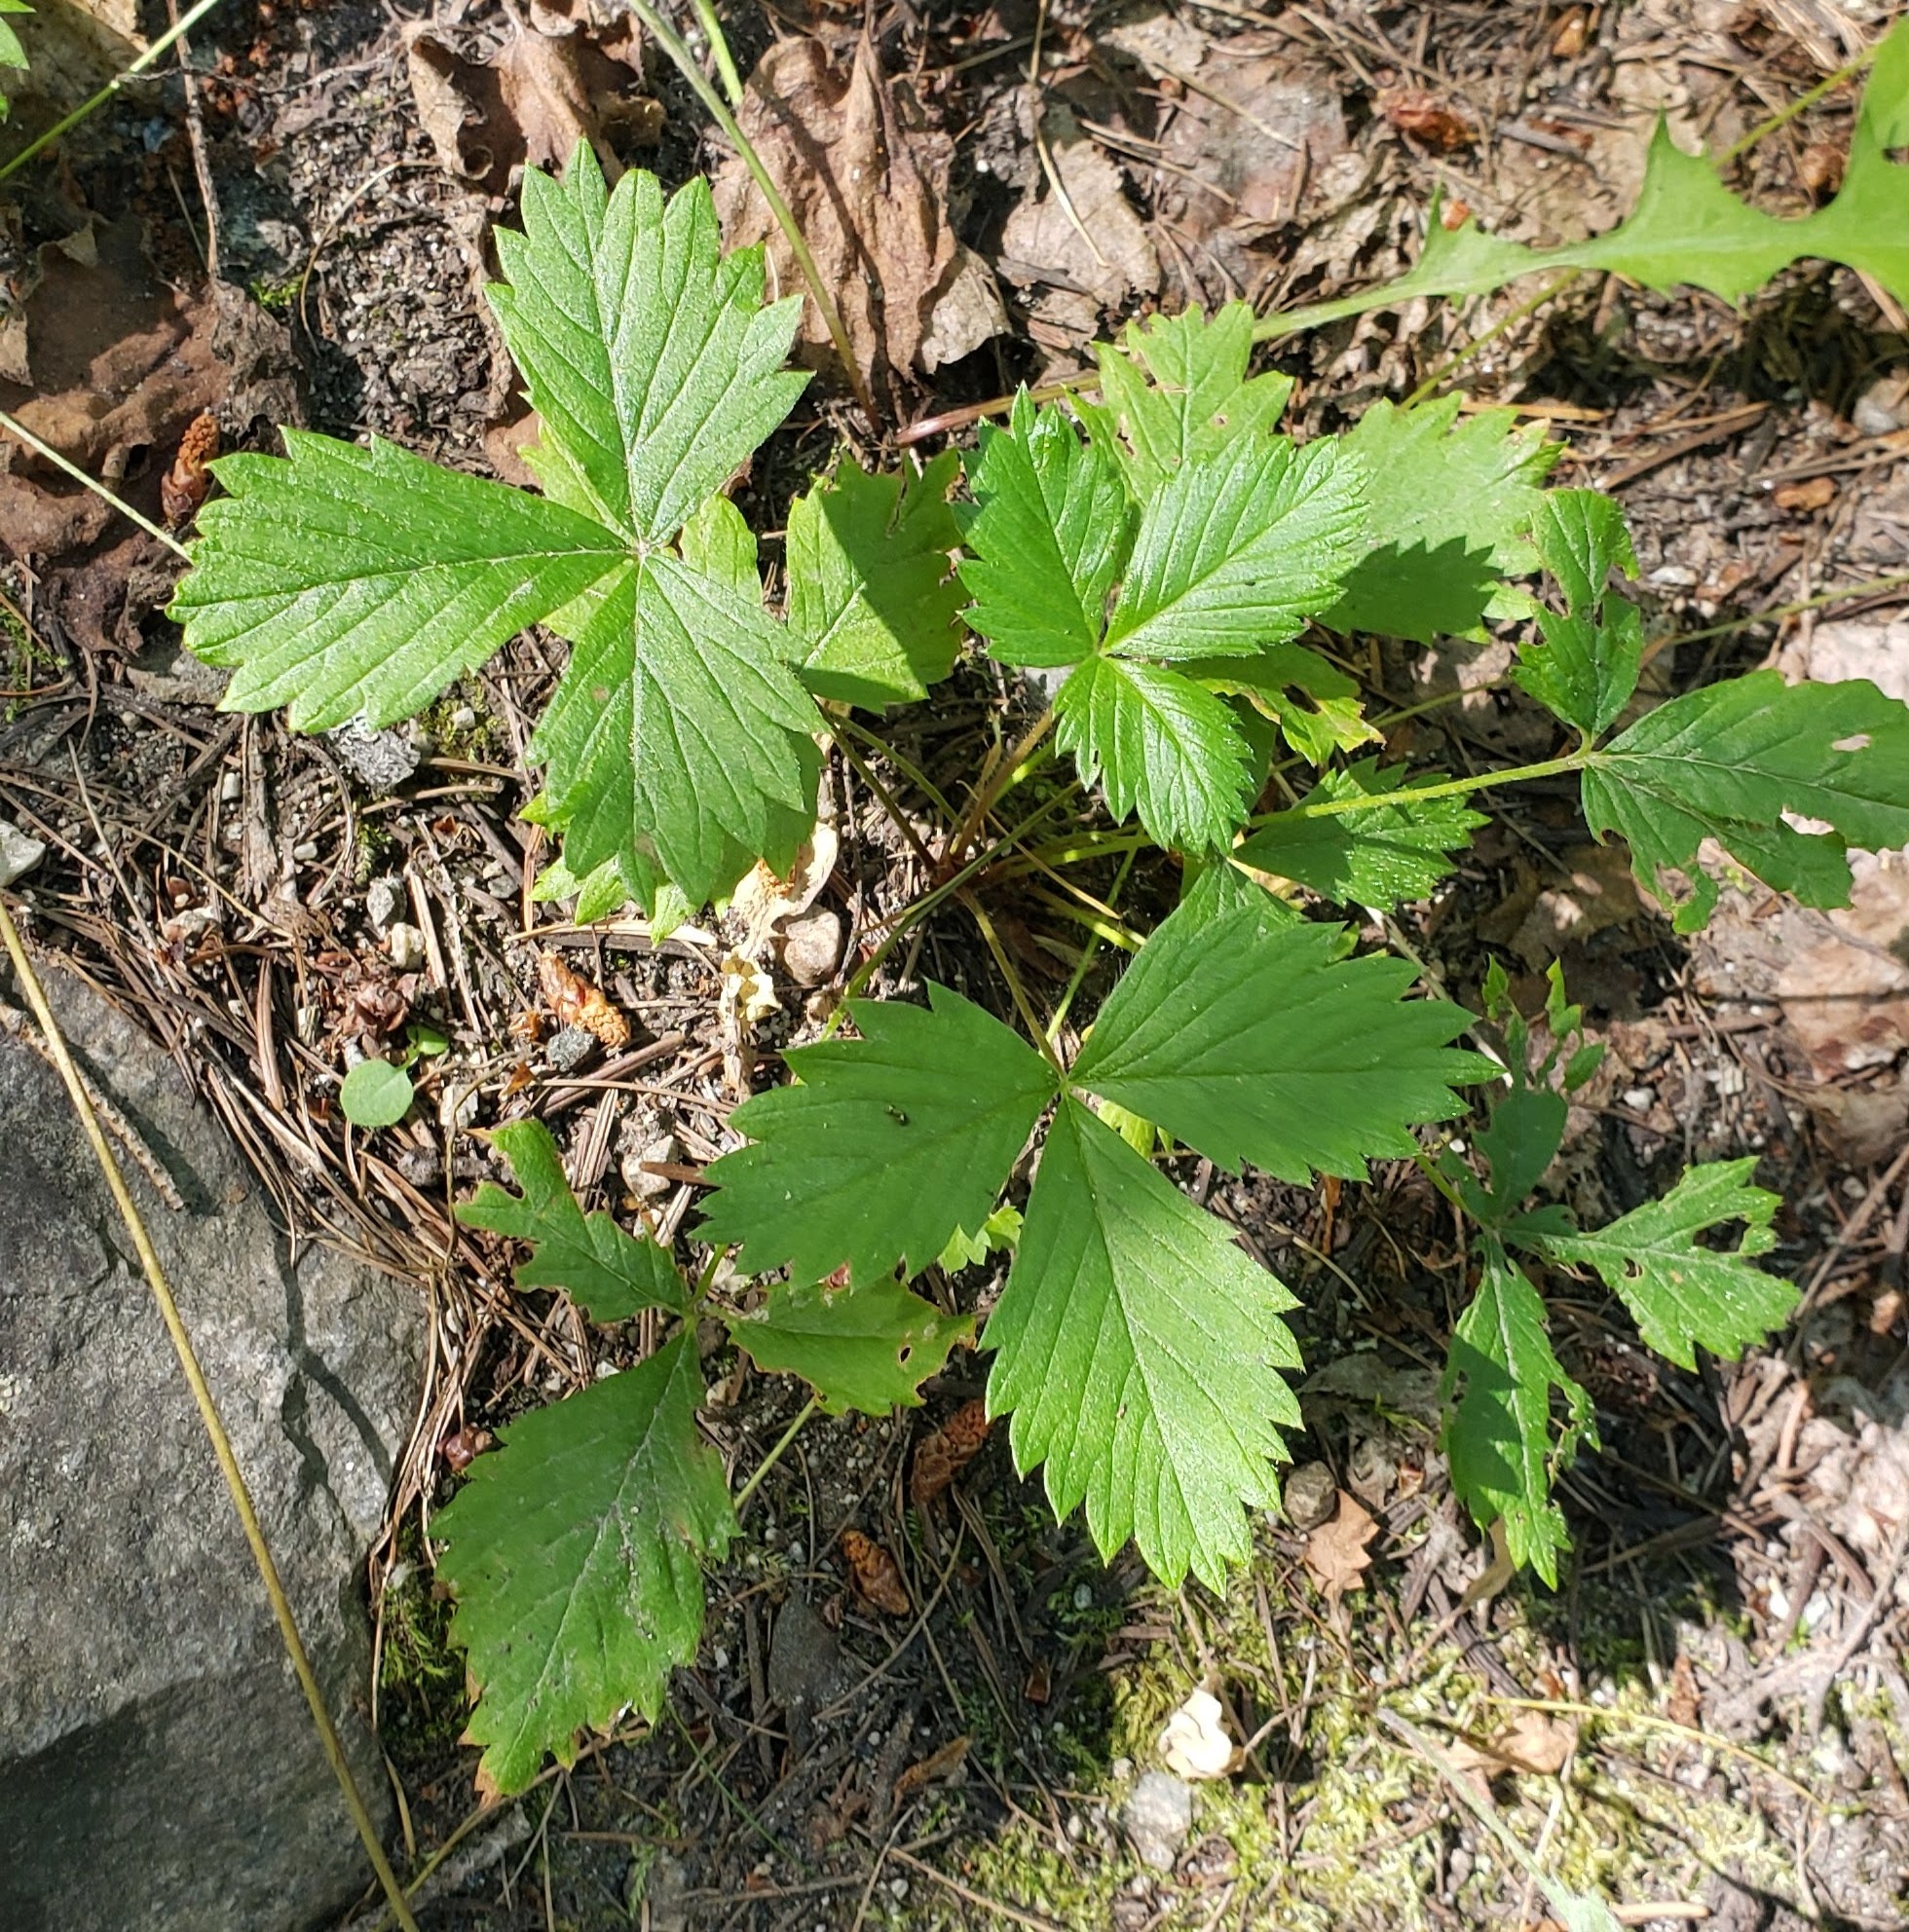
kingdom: Plantae
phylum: Tracheophyta
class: Magnoliopsida
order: Rosales
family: Rosaceae
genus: Fragaria
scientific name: Fragaria vesca
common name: Wild strawberry
